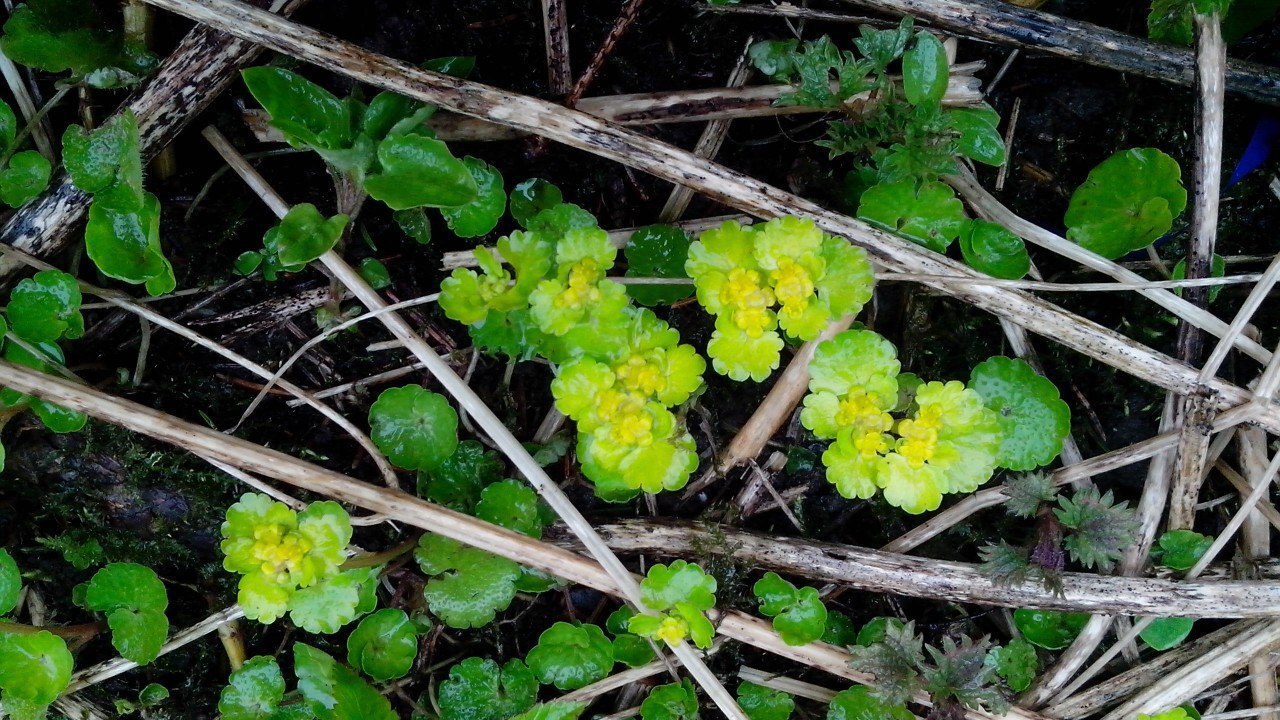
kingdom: Plantae
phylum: Tracheophyta
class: Magnoliopsida
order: Saxifragales
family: Saxifragaceae
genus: Chrysosplenium
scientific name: Chrysosplenium alternifolium
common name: Alternate-leaved golden-saxifrage
